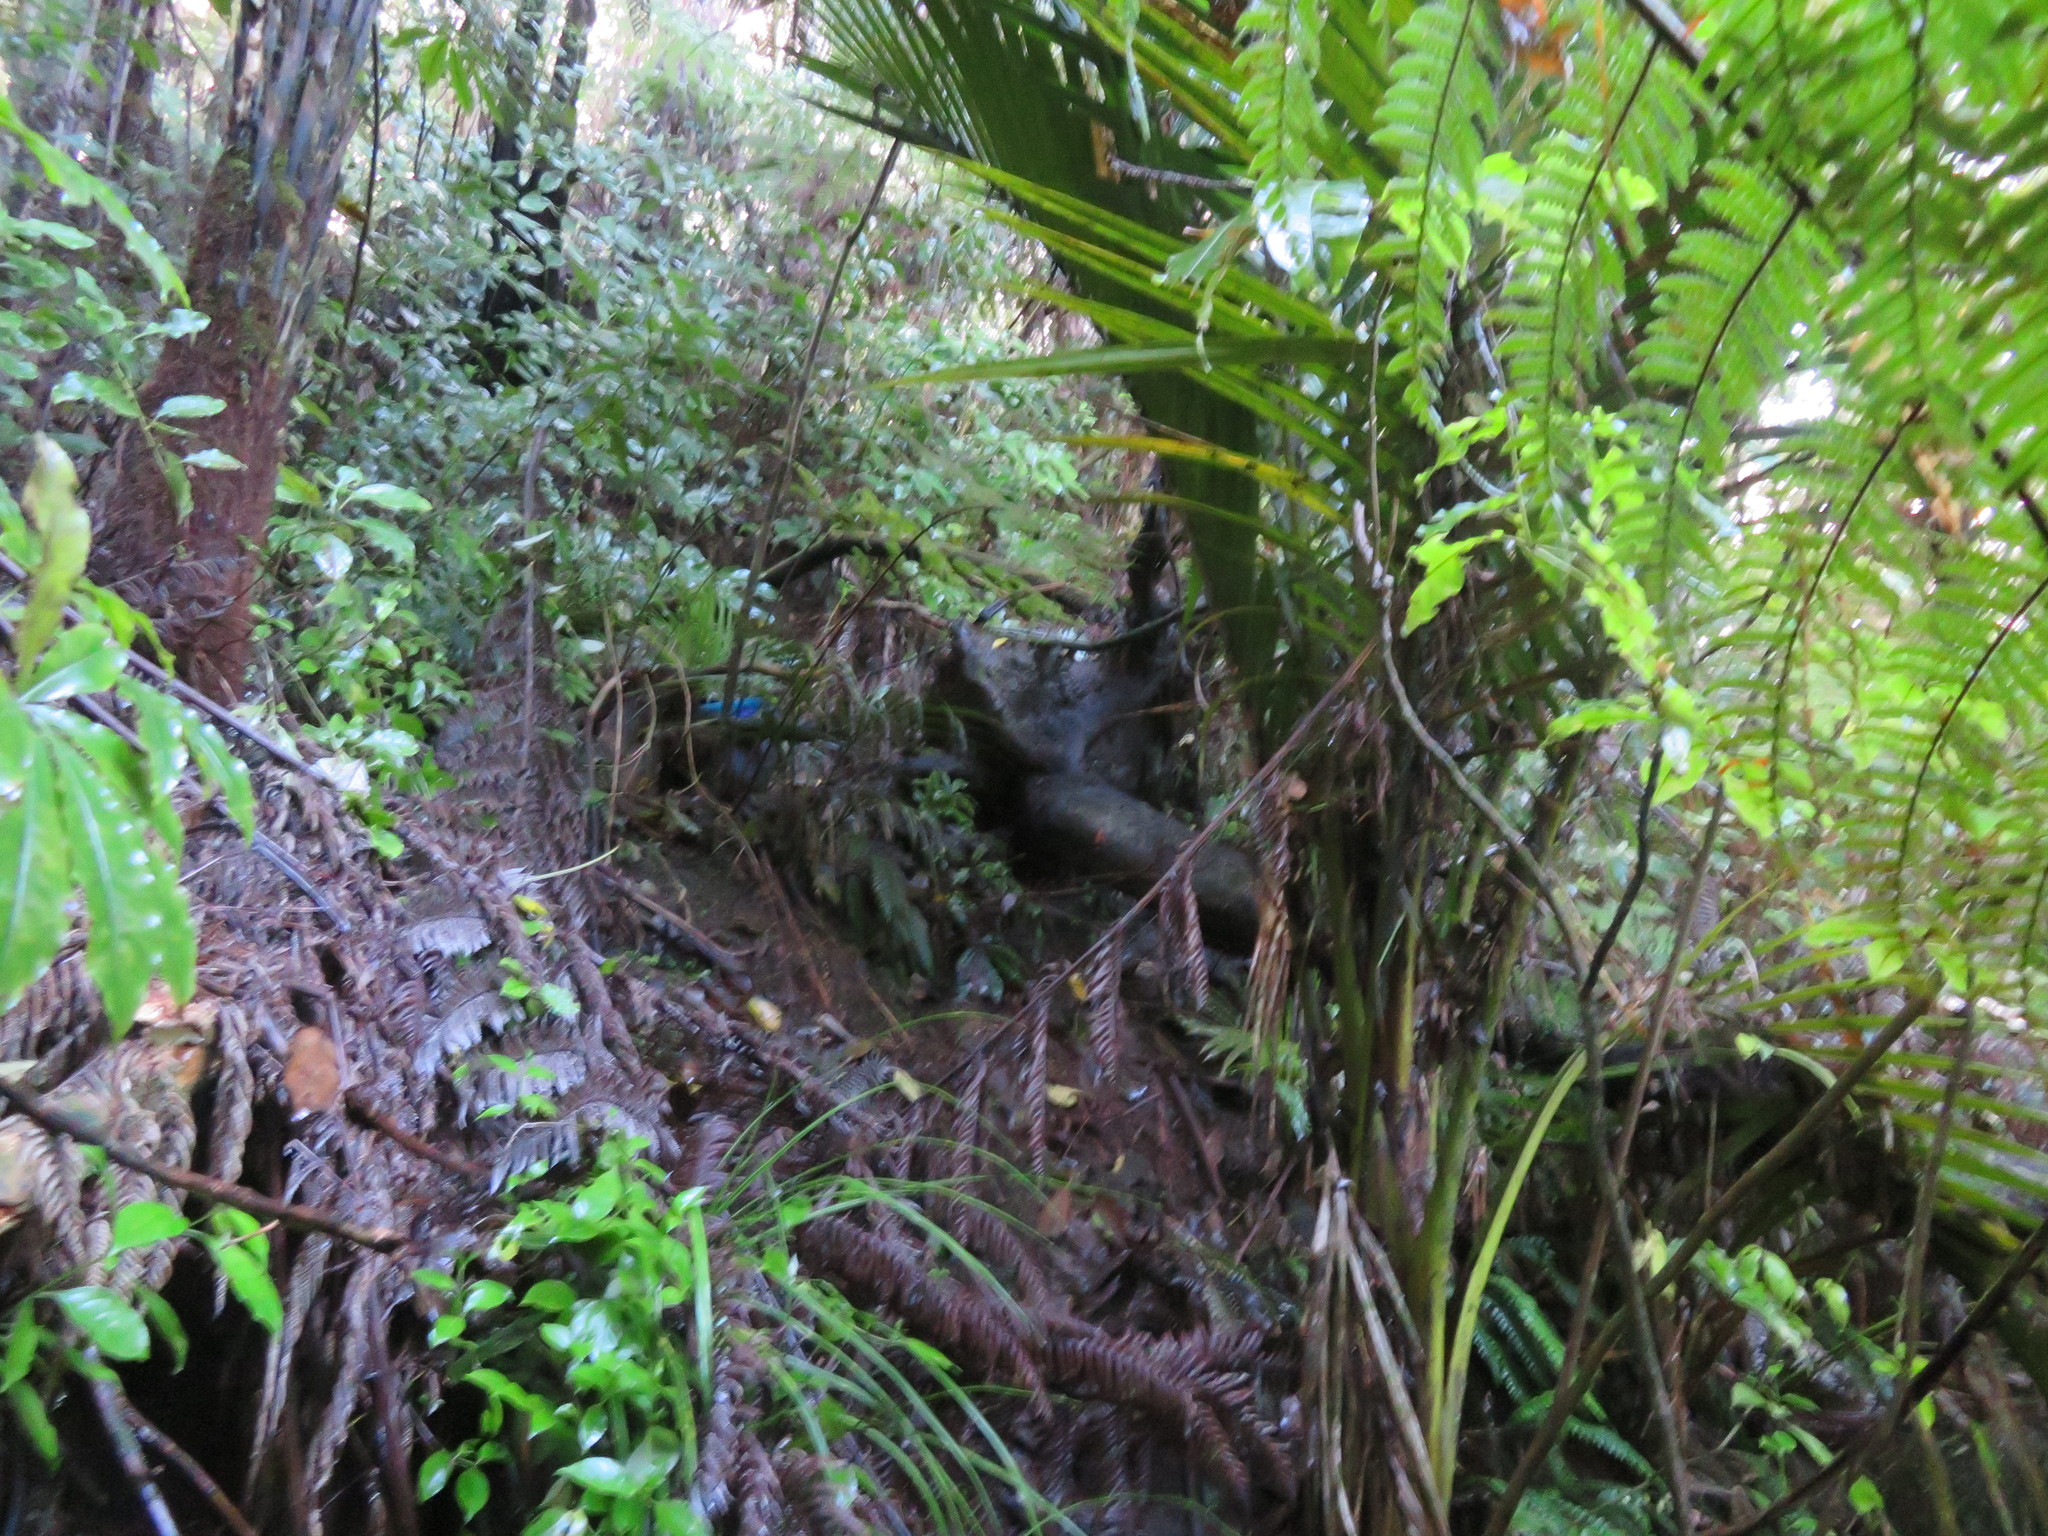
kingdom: Plantae
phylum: Tracheophyta
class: Liliopsida
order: Arecales
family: Arecaceae
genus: Rhopalostylis
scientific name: Rhopalostylis sapida
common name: Feather-duster palm
